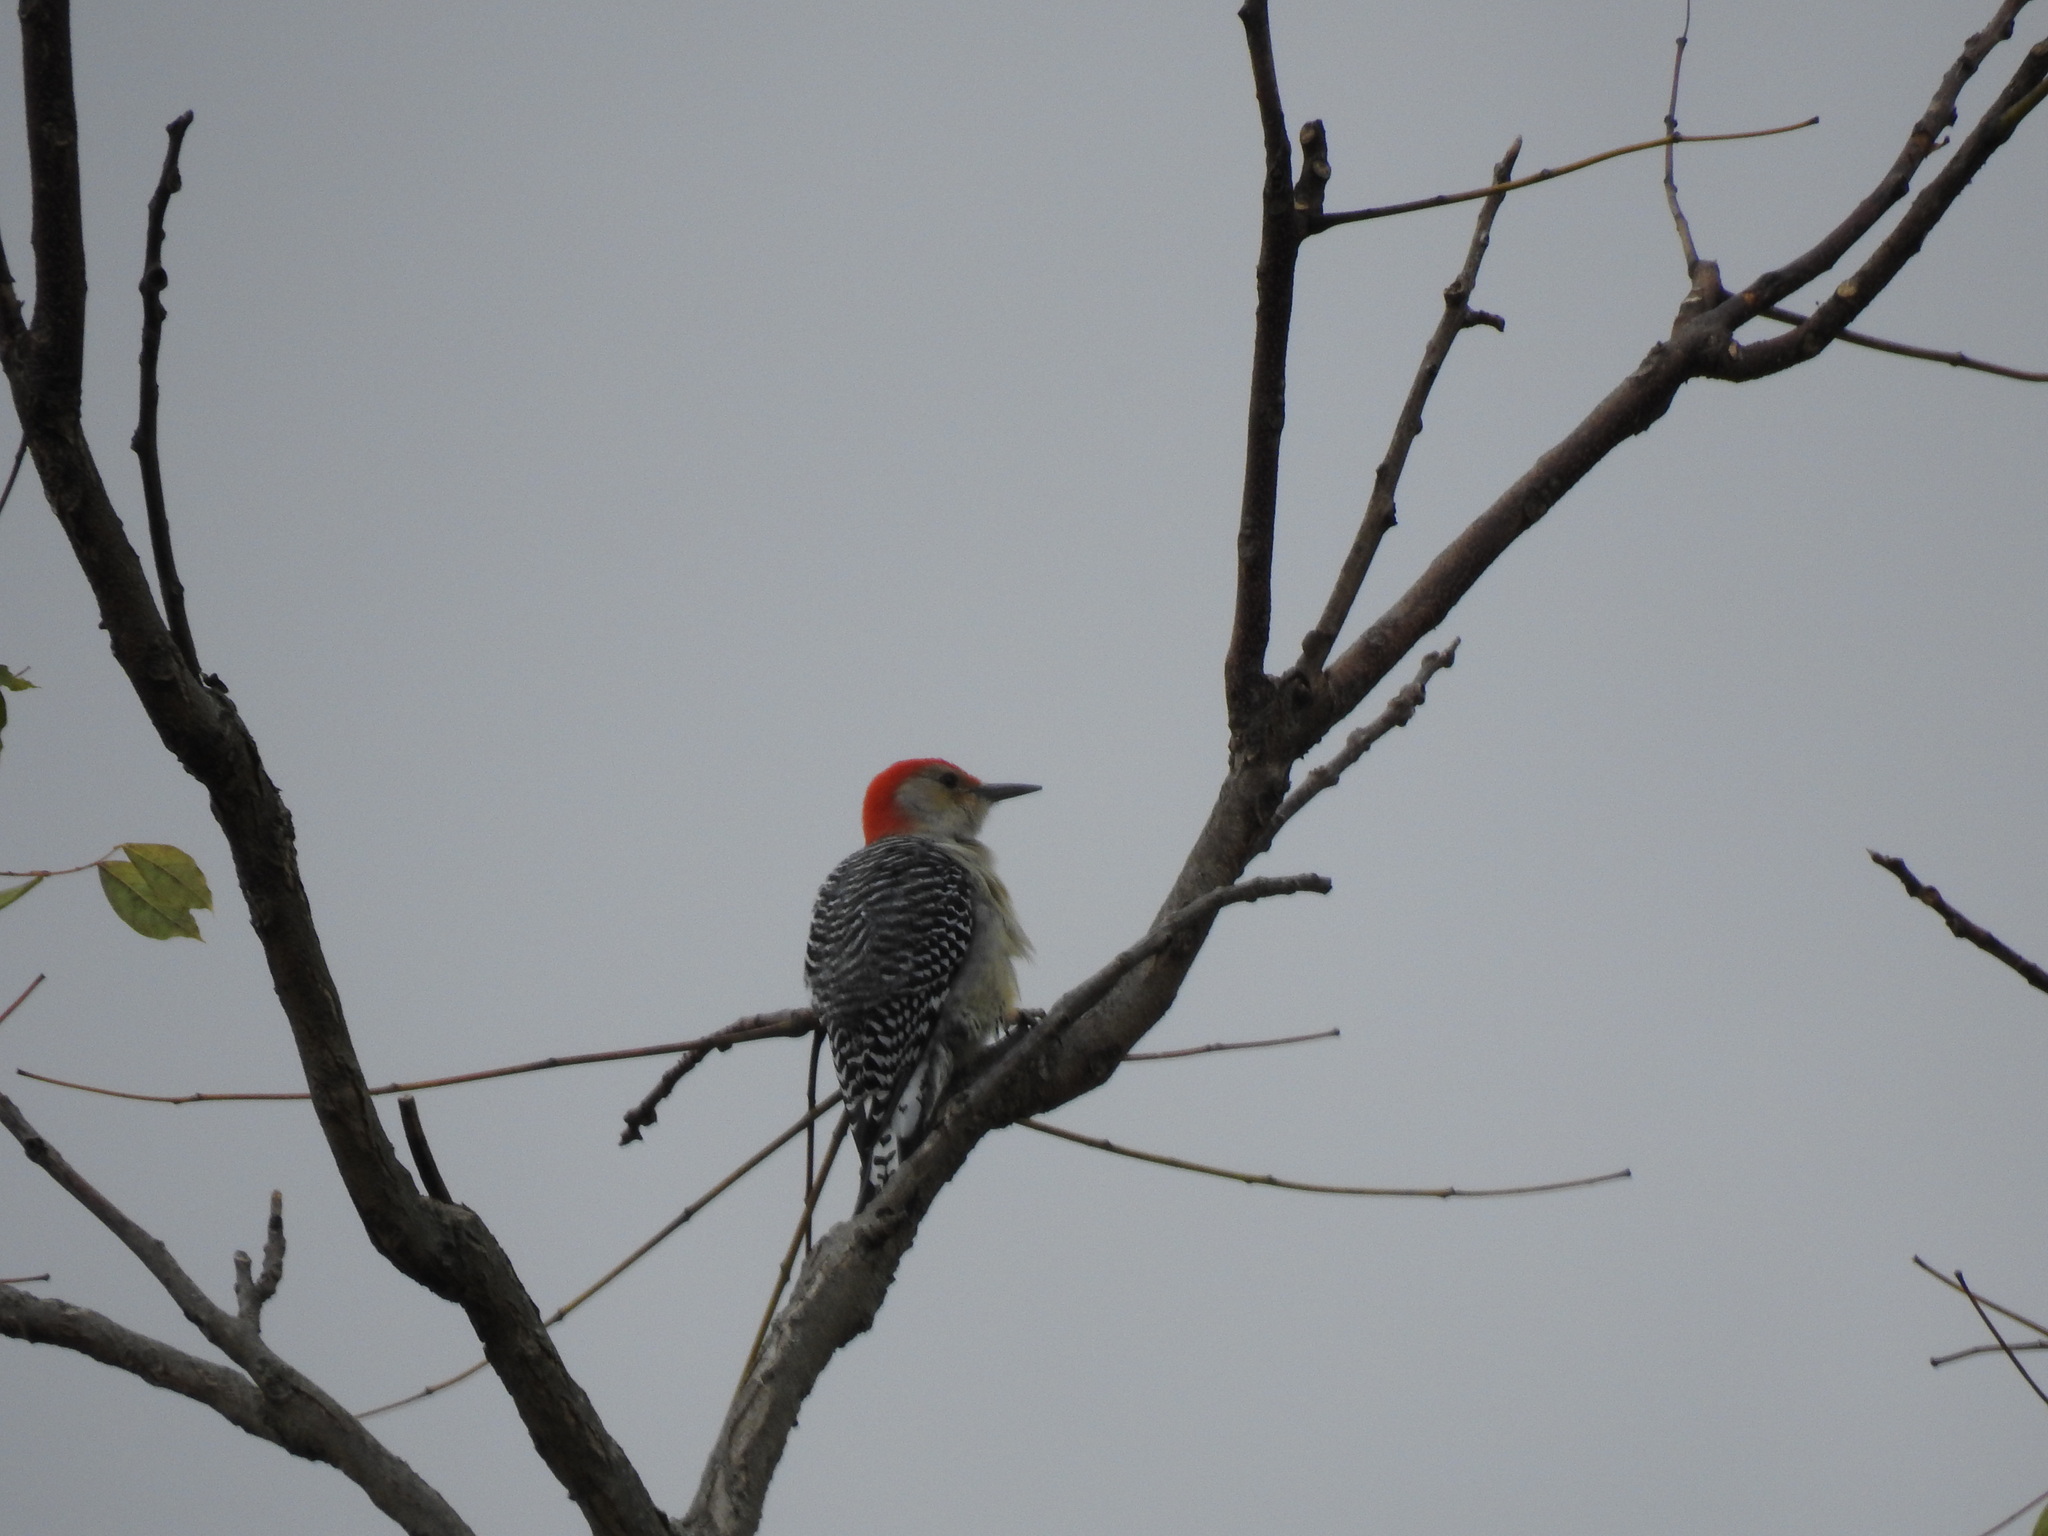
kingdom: Animalia
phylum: Chordata
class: Aves
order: Piciformes
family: Picidae
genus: Melanerpes
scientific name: Melanerpes carolinus
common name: Red-bellied woodpecker
